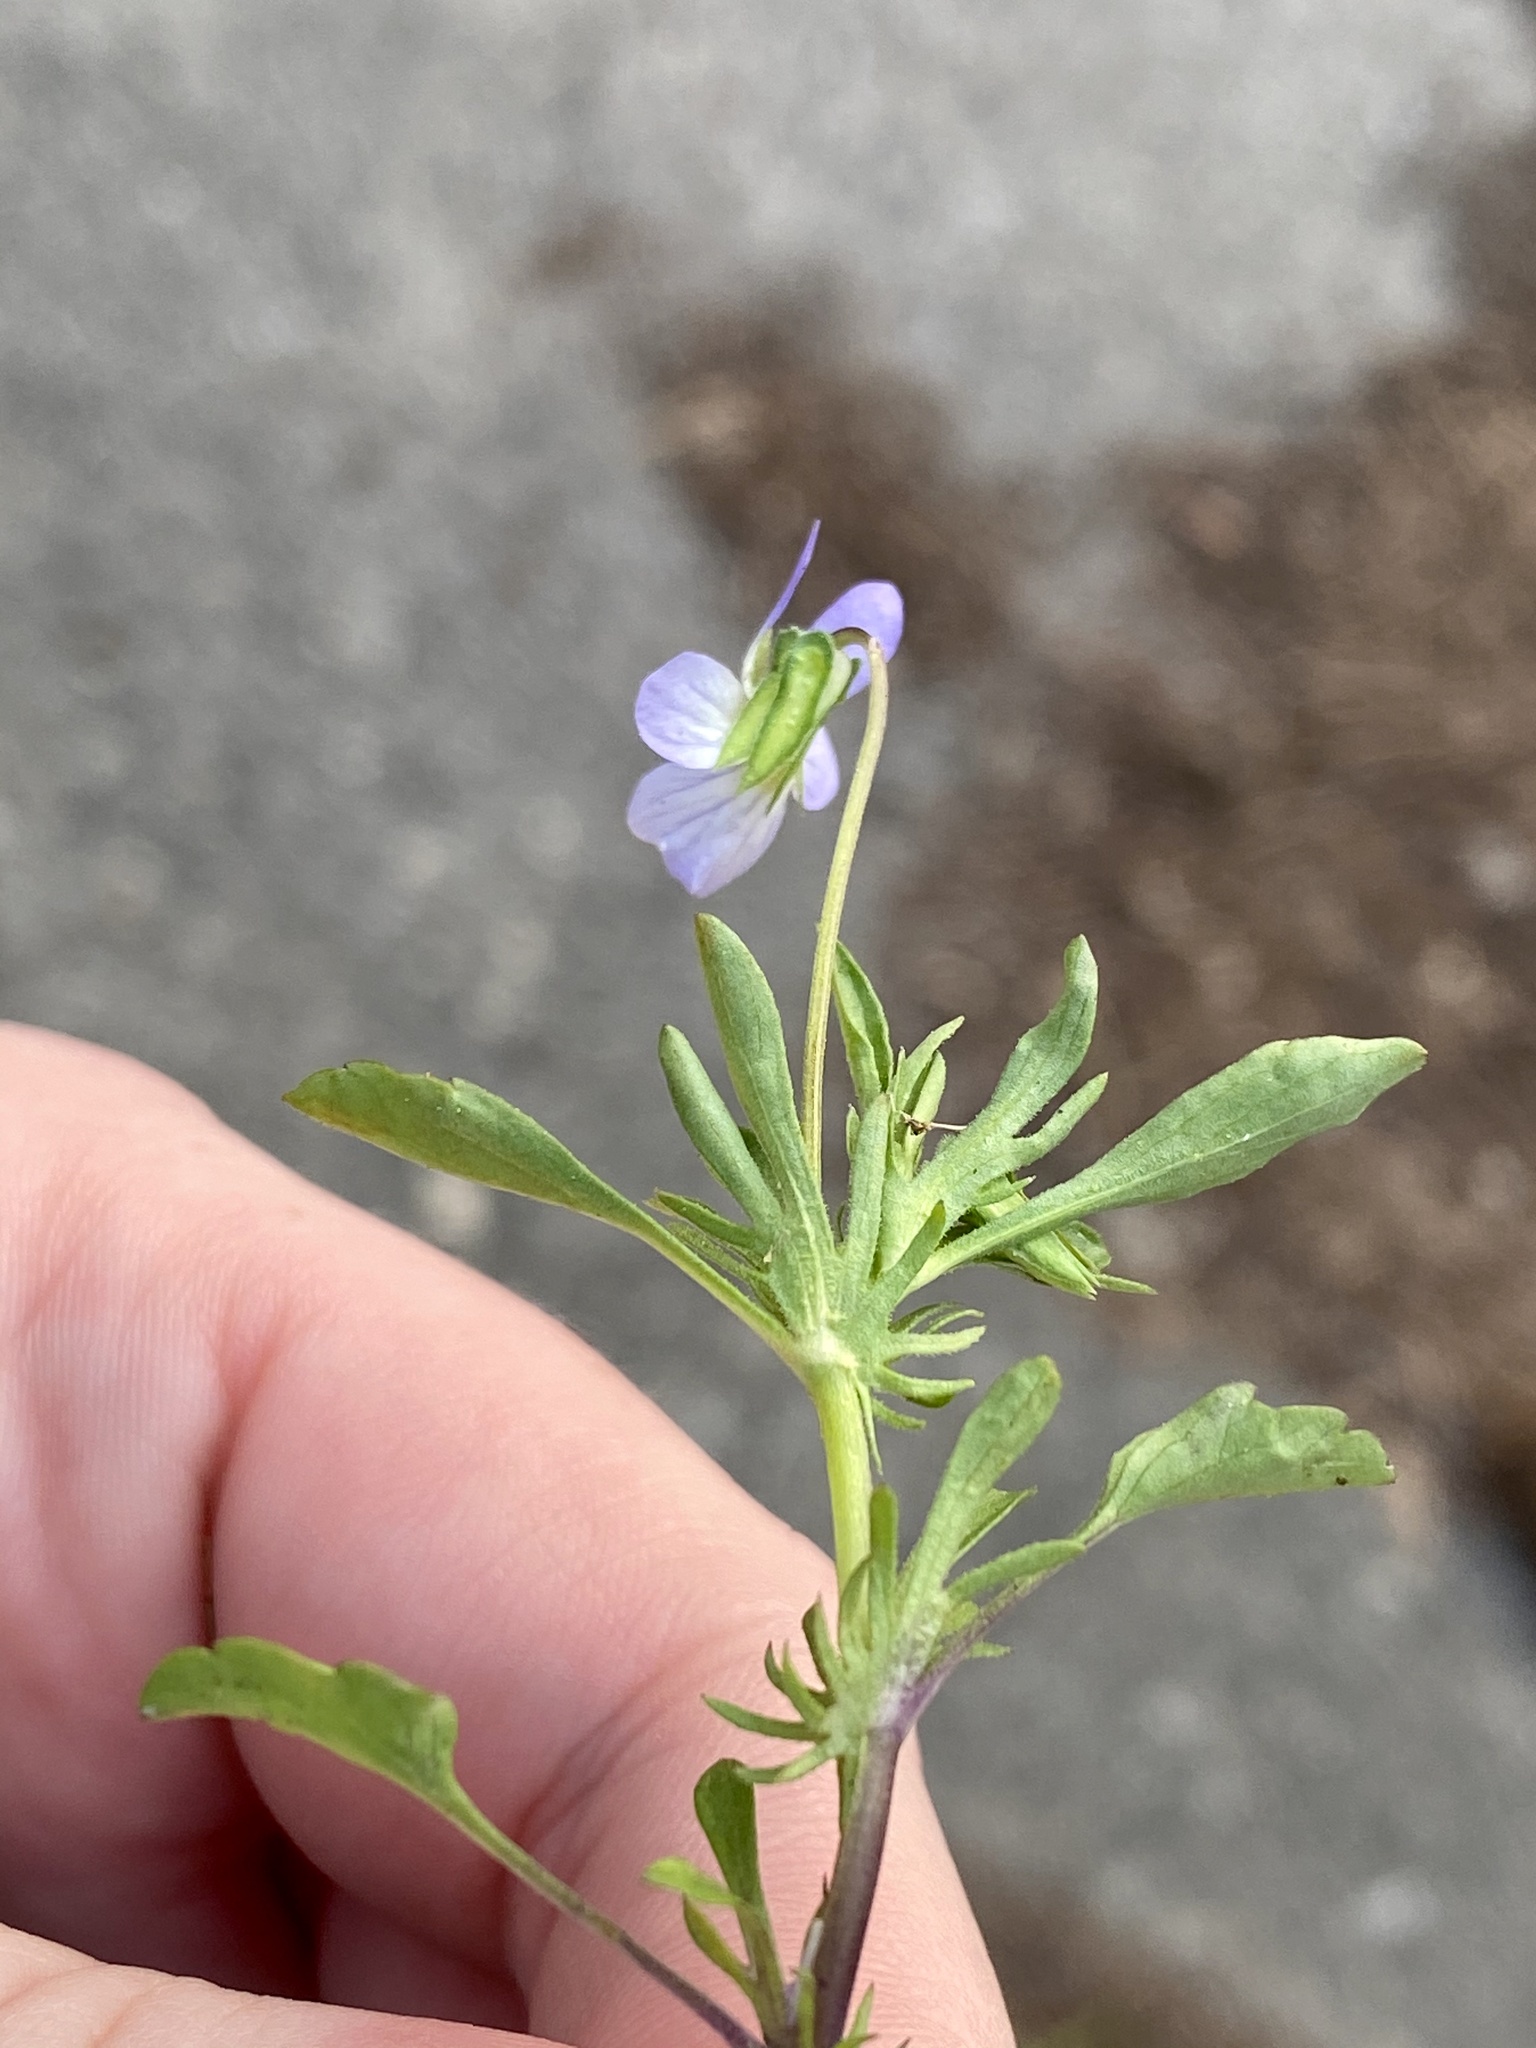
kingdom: Plantae
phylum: Tracheophyta
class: Magnoliopsida
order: Malpighiales
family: Violaceae
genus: Viola
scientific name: Viola rafinesquei
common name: American field pansy
